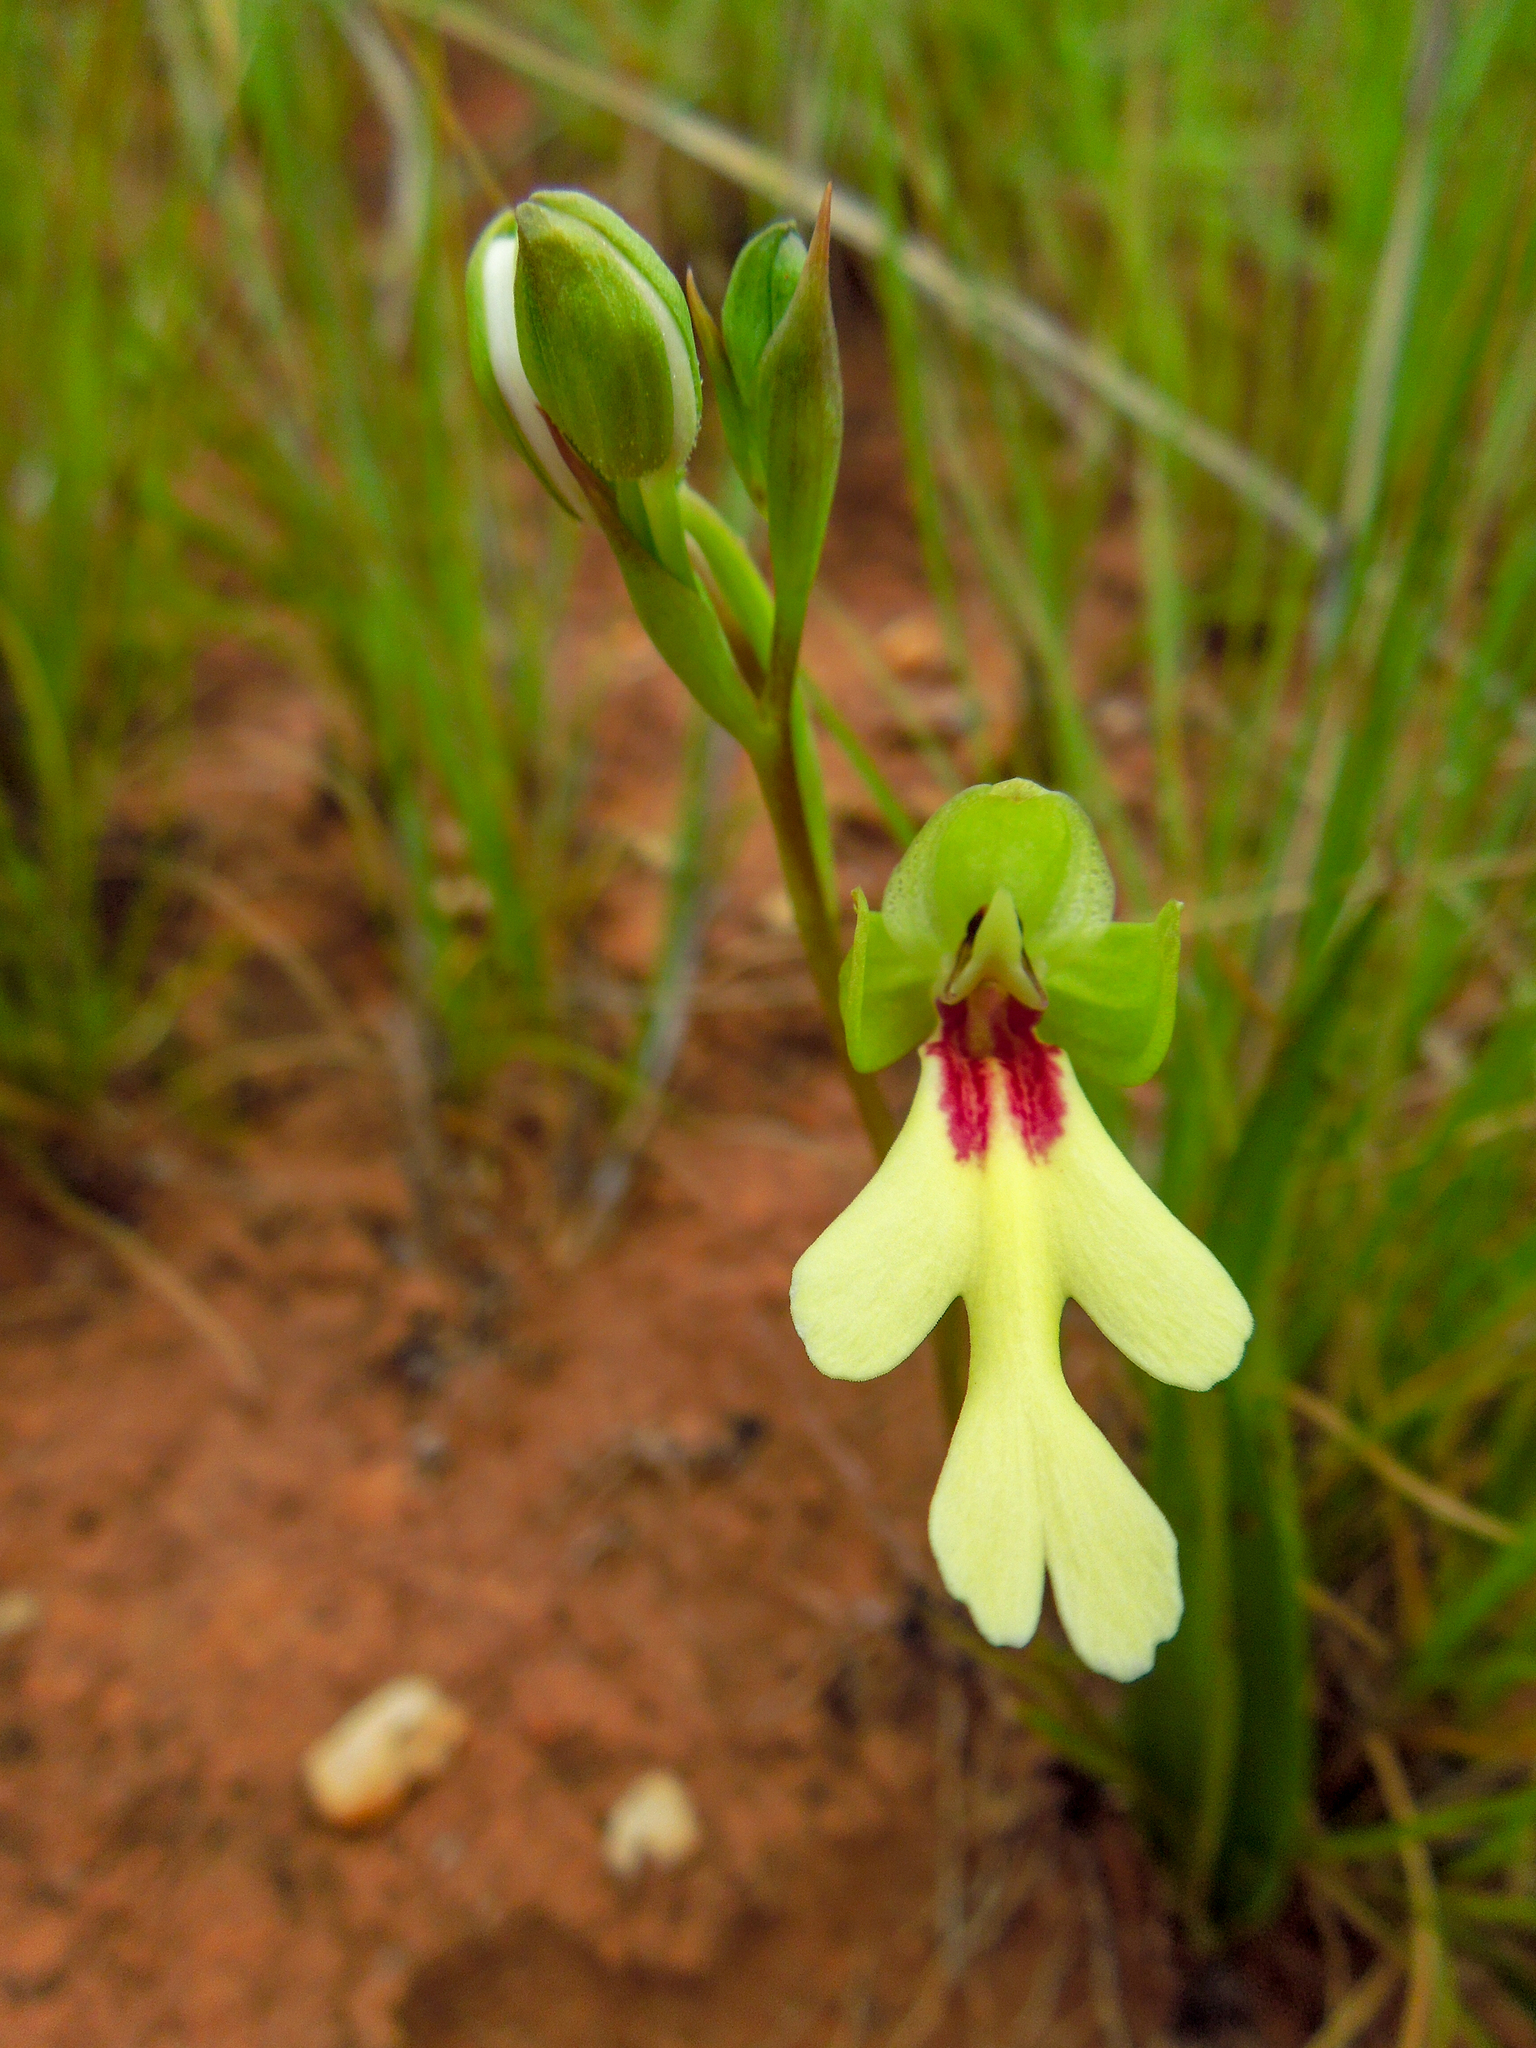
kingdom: Plantae
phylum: Tracheophyta
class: Liliopsida
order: Asparagales
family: Orchidaceae
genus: Cynorkis
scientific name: Cynorkis flexuosa
